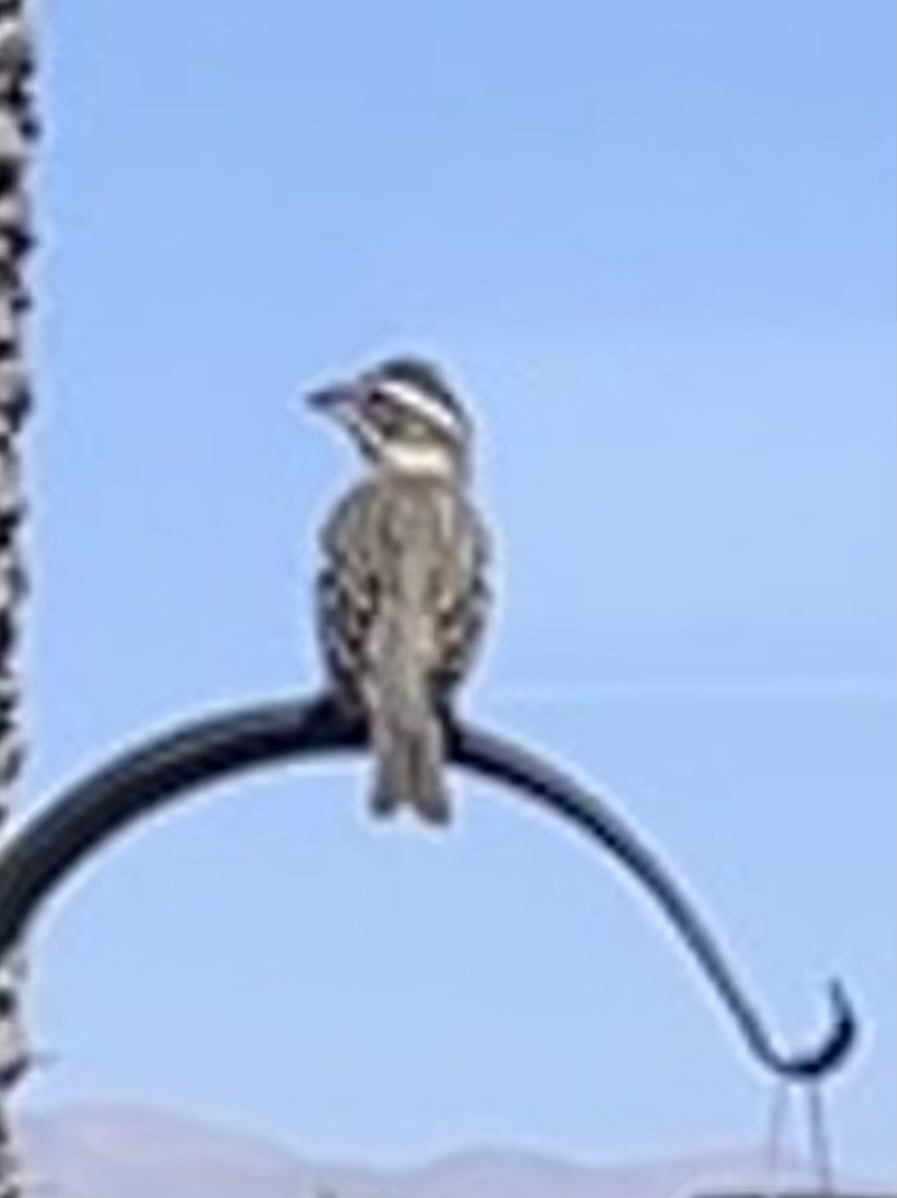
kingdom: Animalia
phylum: Chordata
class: Aves
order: Passeriformes
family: Cardinalidae
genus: Pheucticus
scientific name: Pheucticus melanocephalus
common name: Black-headed grosbeak
